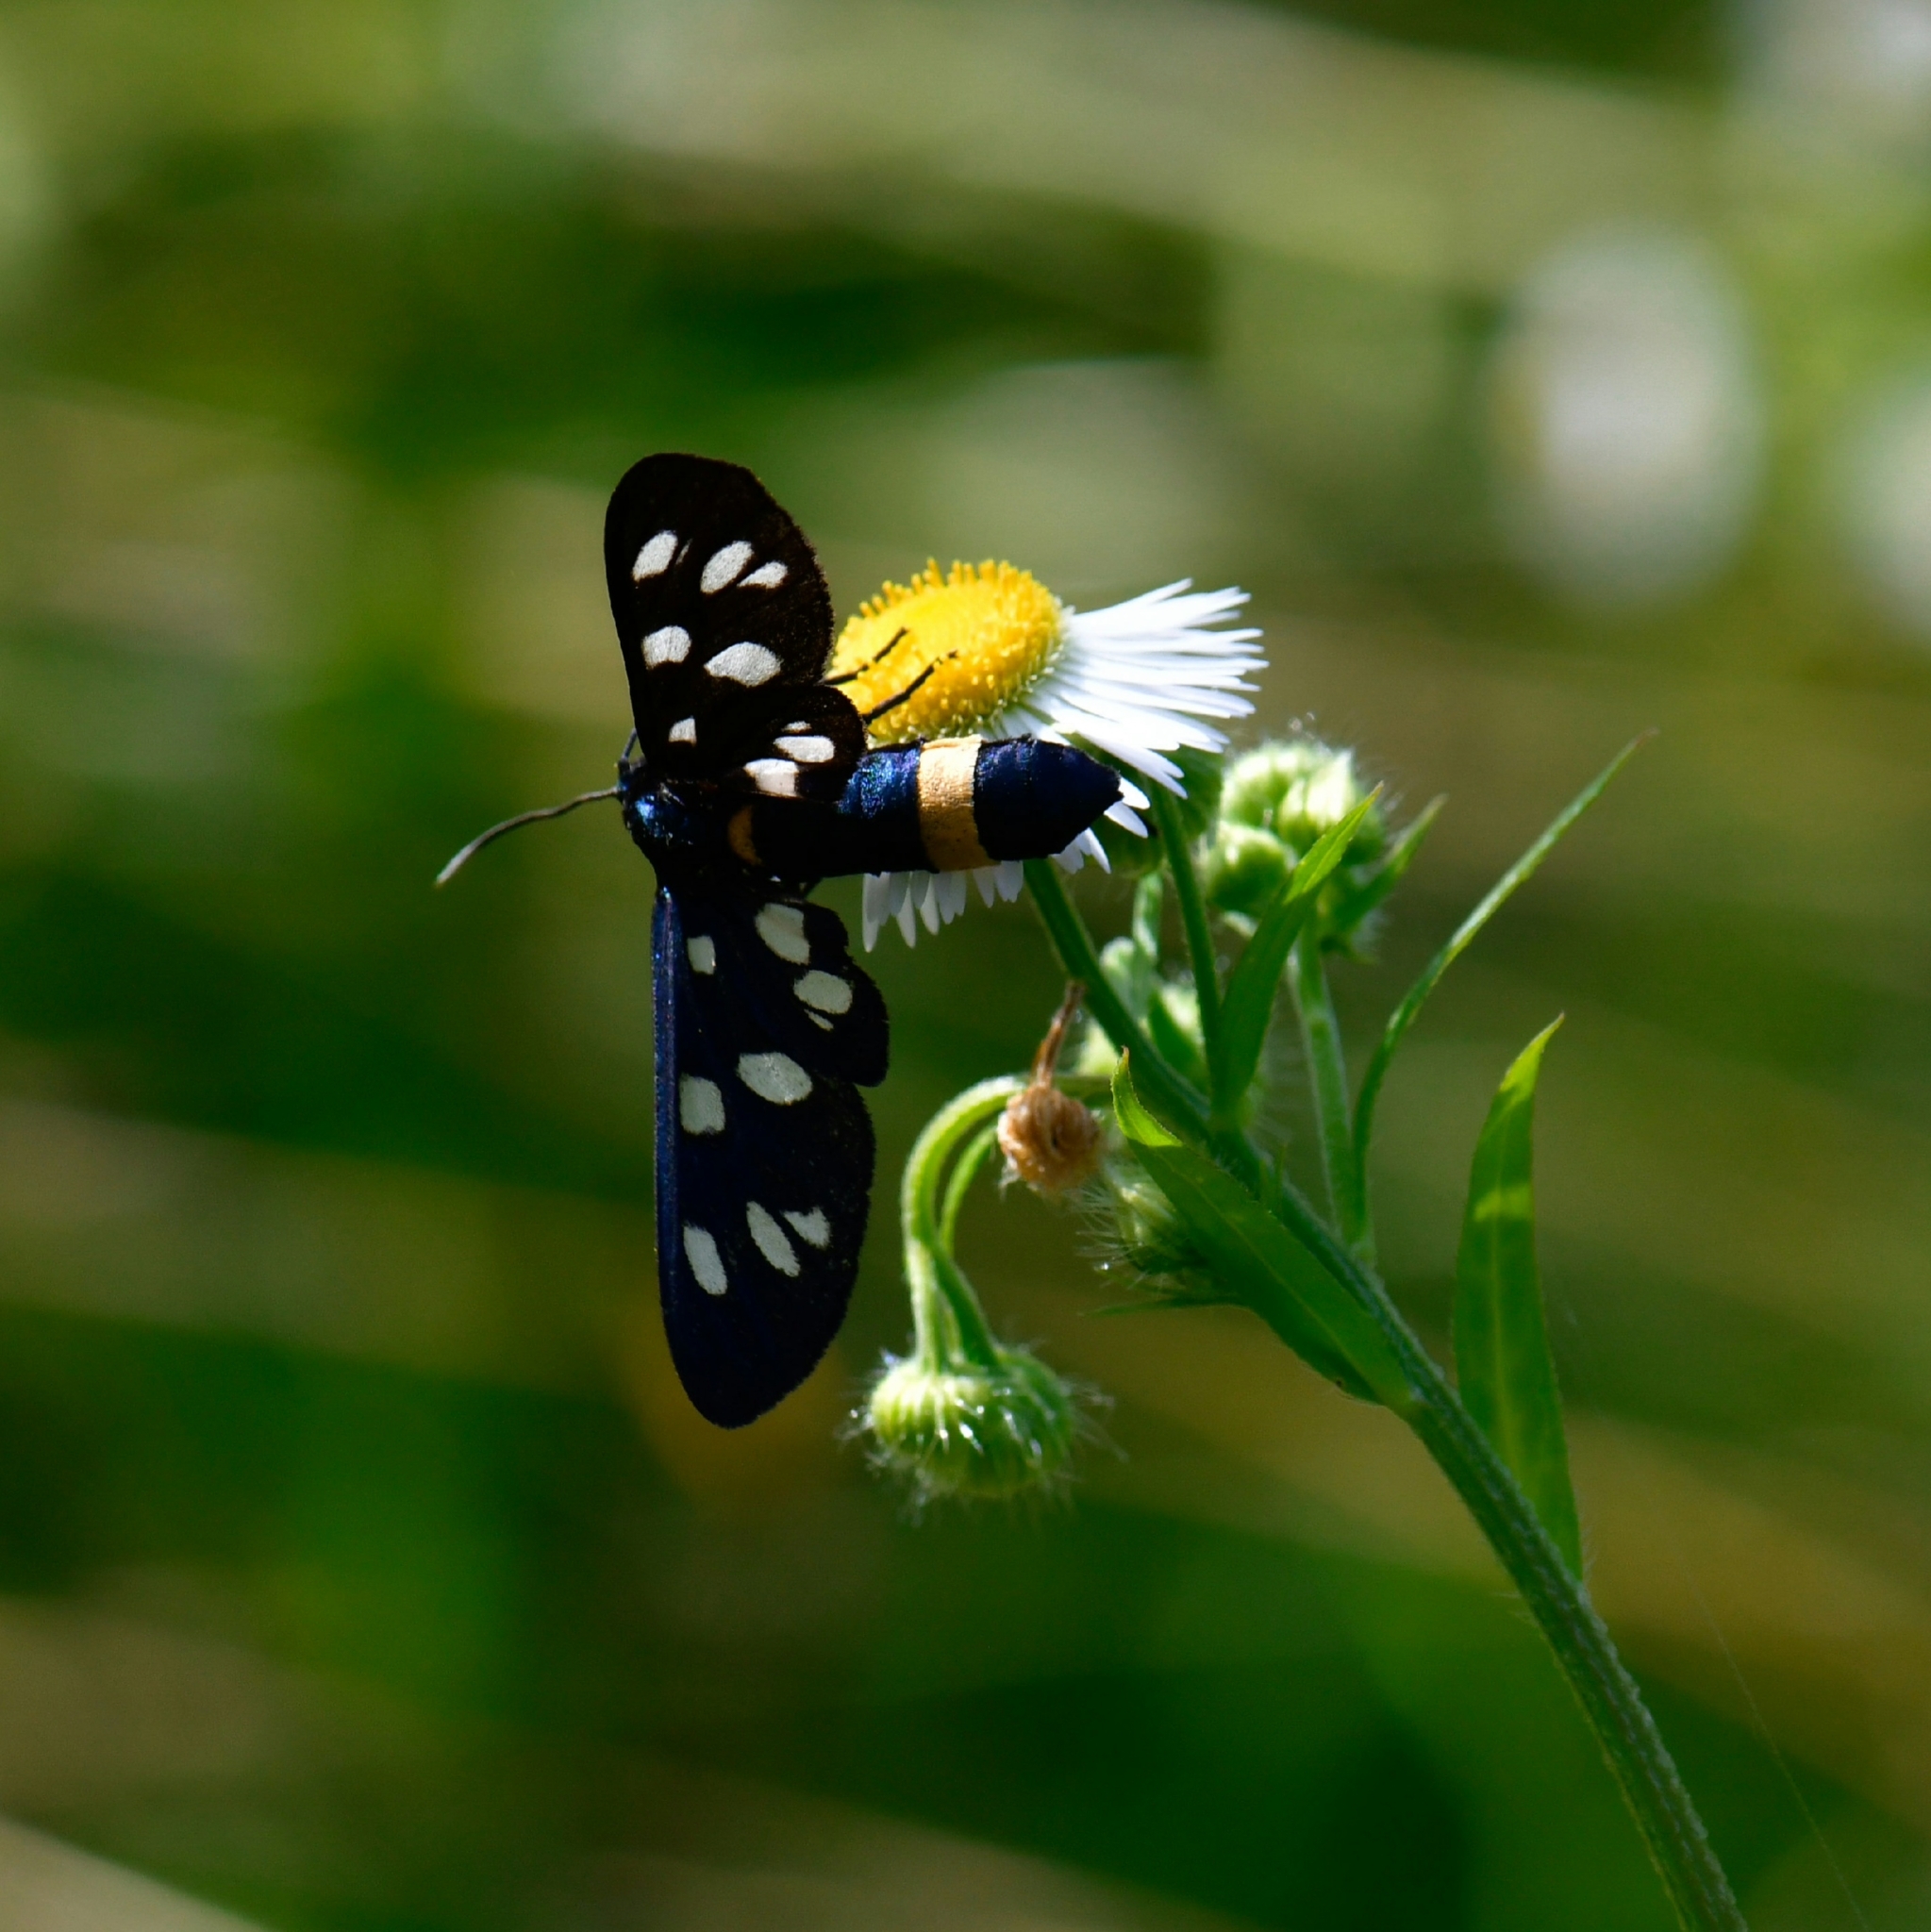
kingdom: Animalia
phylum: Arthropoda
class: Insecta
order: Lepidoptera
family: Erebidae
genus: Amata
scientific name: Amata phegea
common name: Nine-spotted
